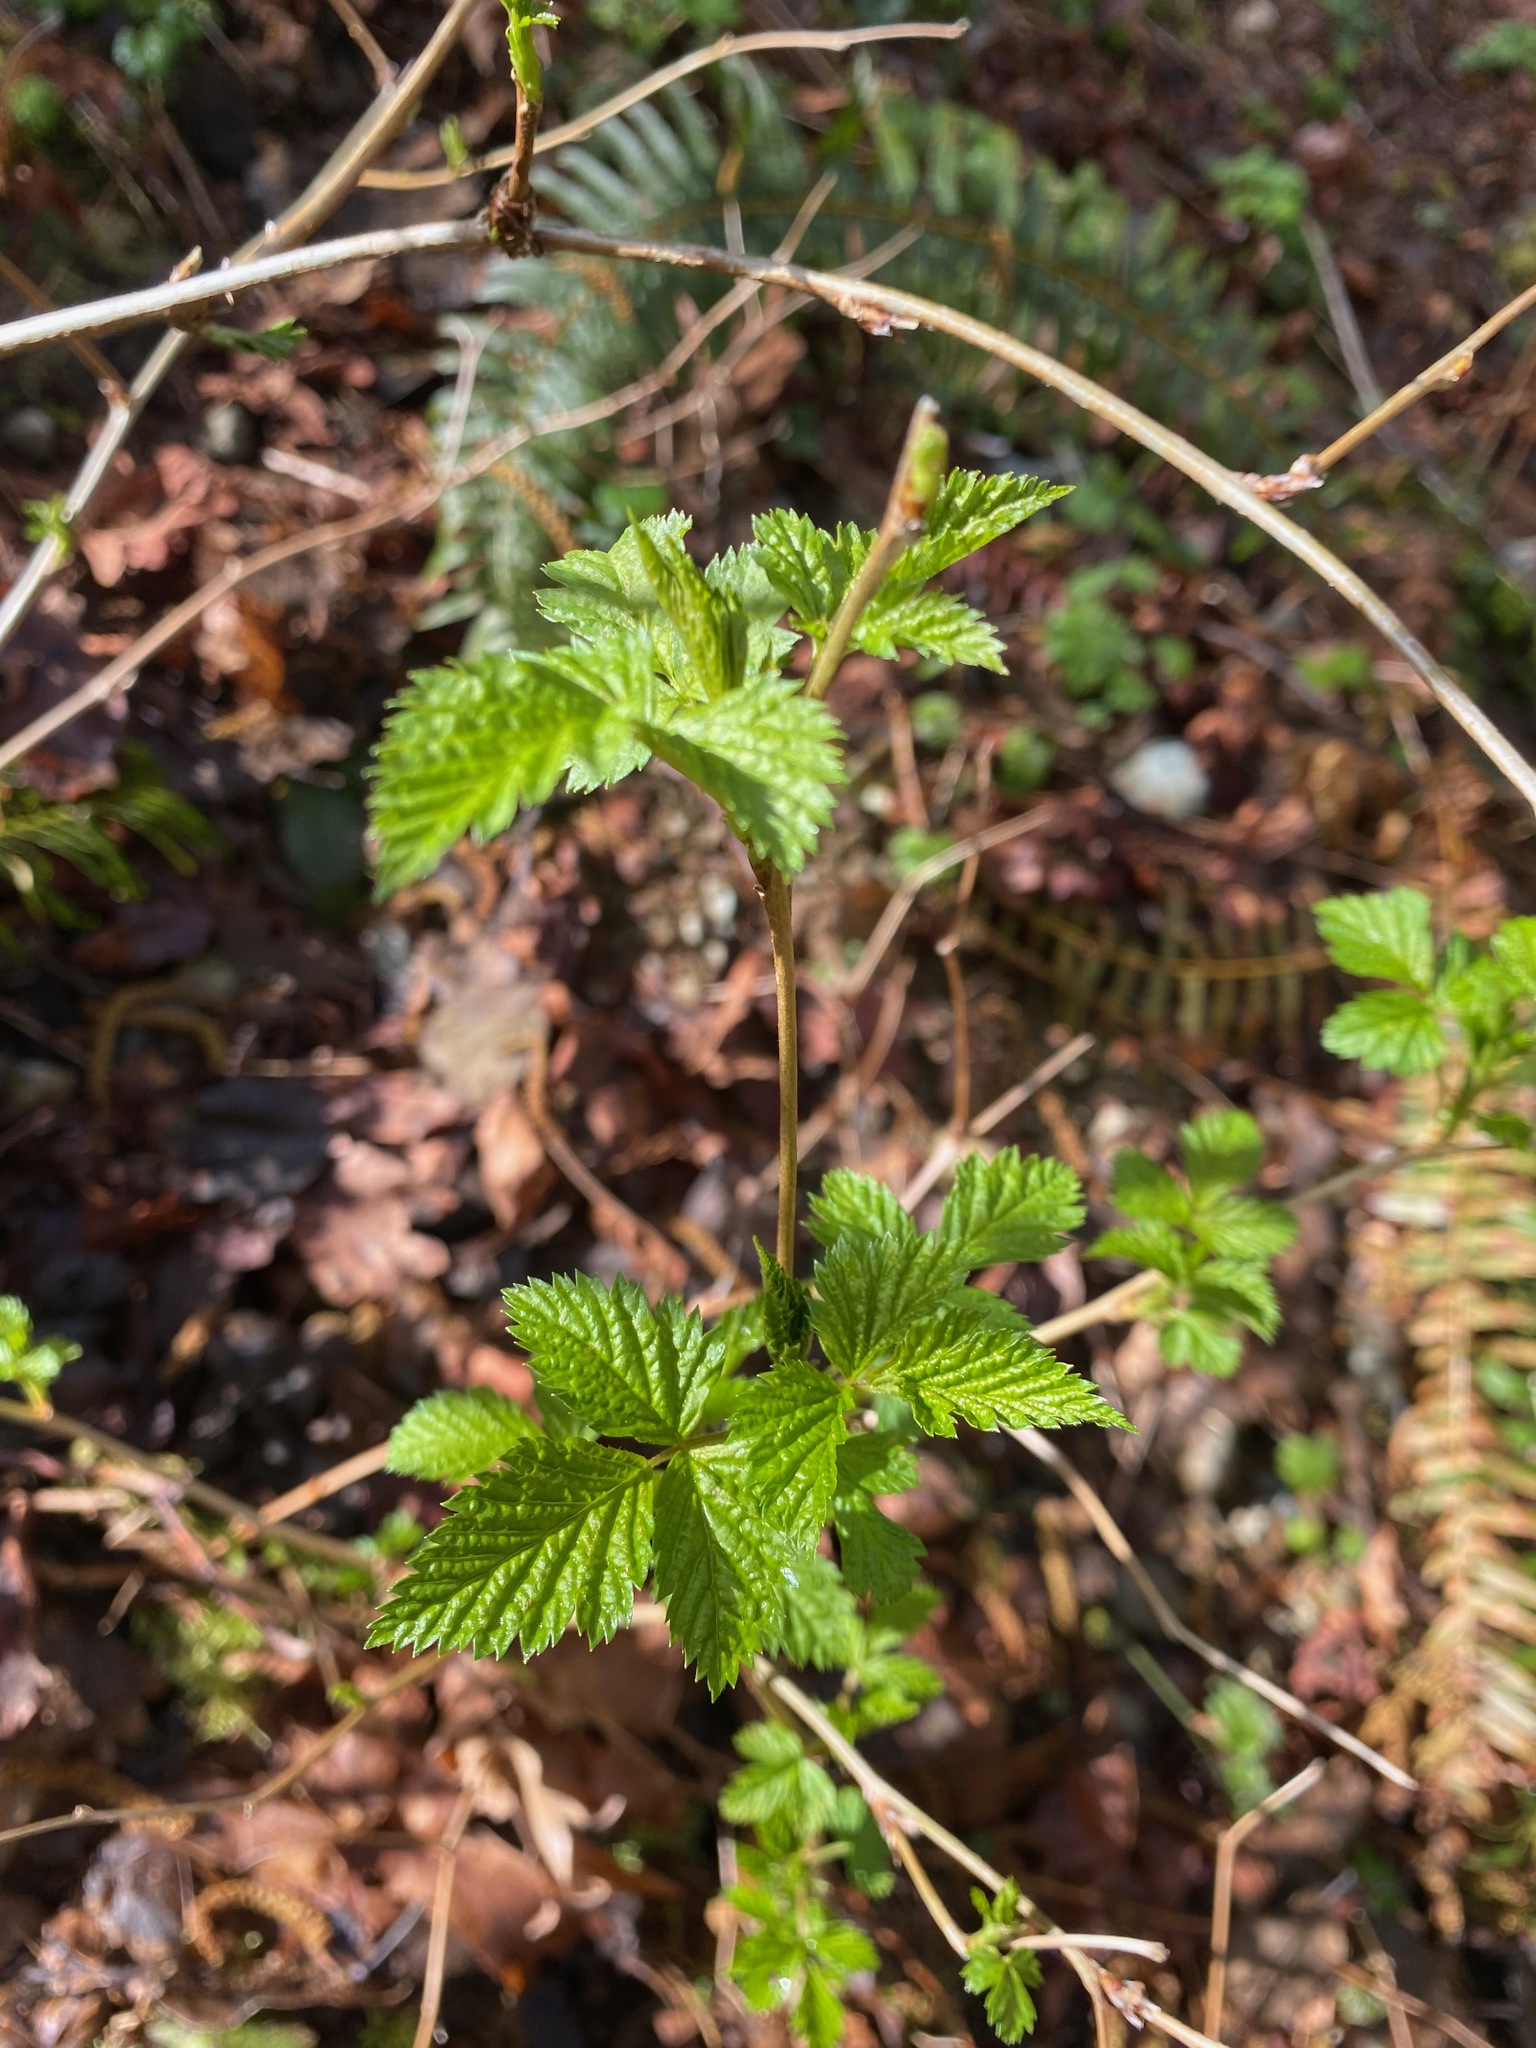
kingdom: Plantae
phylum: Tracheophyta
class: Magnoliopsida
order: Rosales
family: Rosaceae
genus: Rubus
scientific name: Rubus spectabilis
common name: Salmonberry
